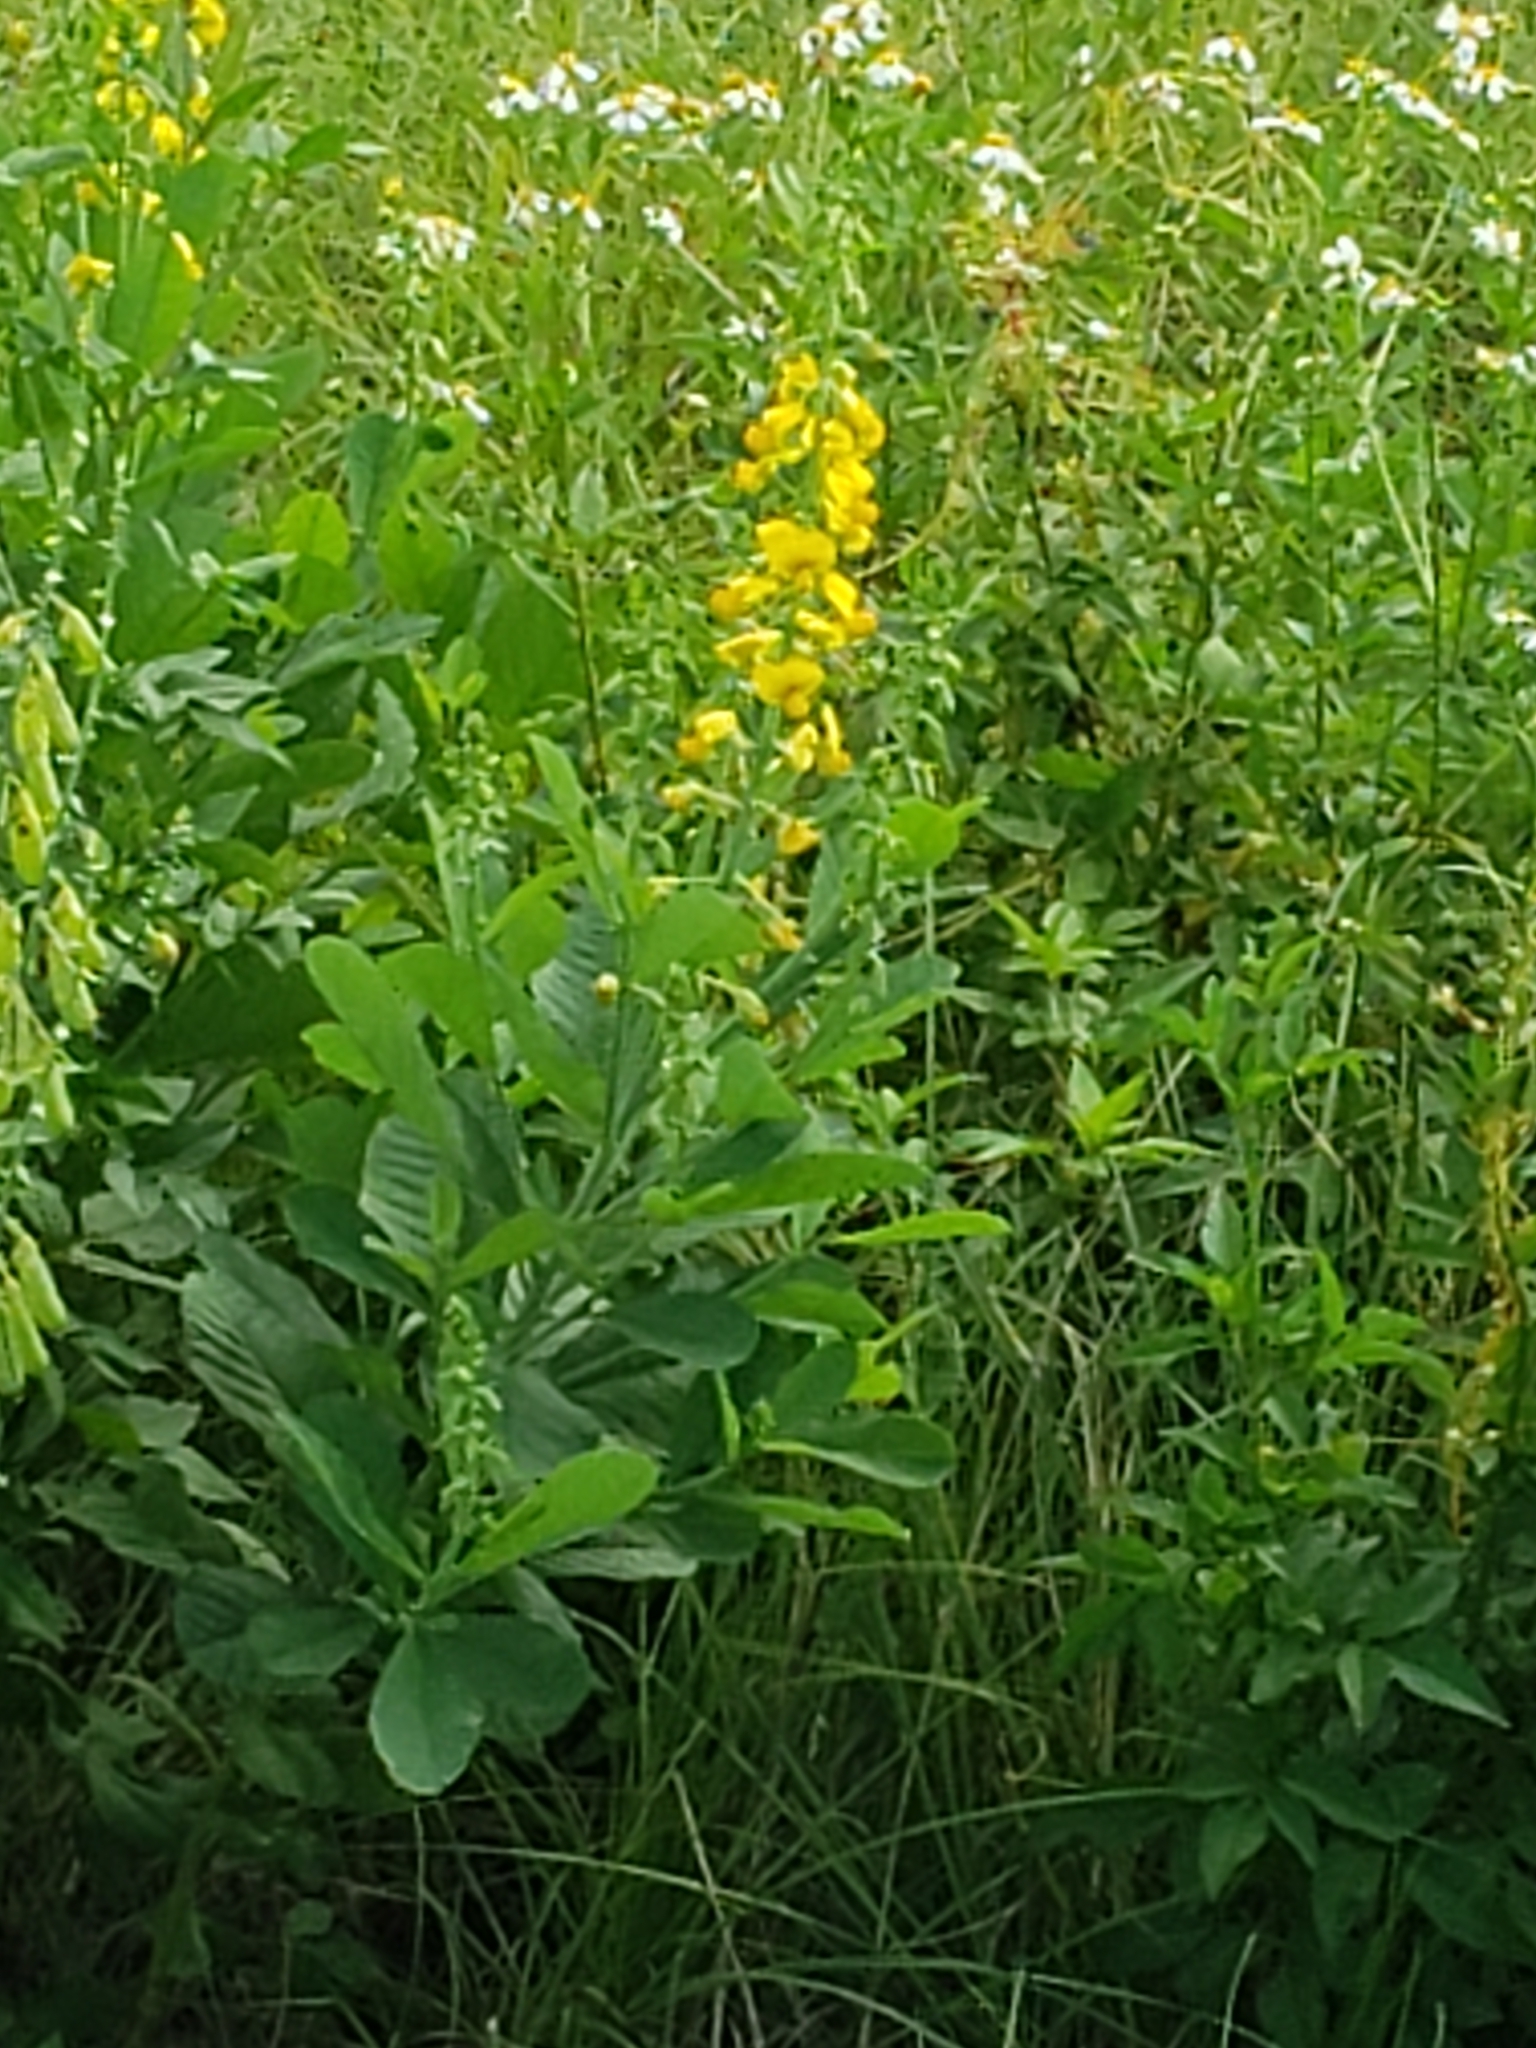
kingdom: Plantae
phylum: Tracheophyta
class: Magnoliopsida
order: Fabales
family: Fabaceae
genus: Crotalaria
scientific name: Crotalaria spectabilis
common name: Showy rattlebox
